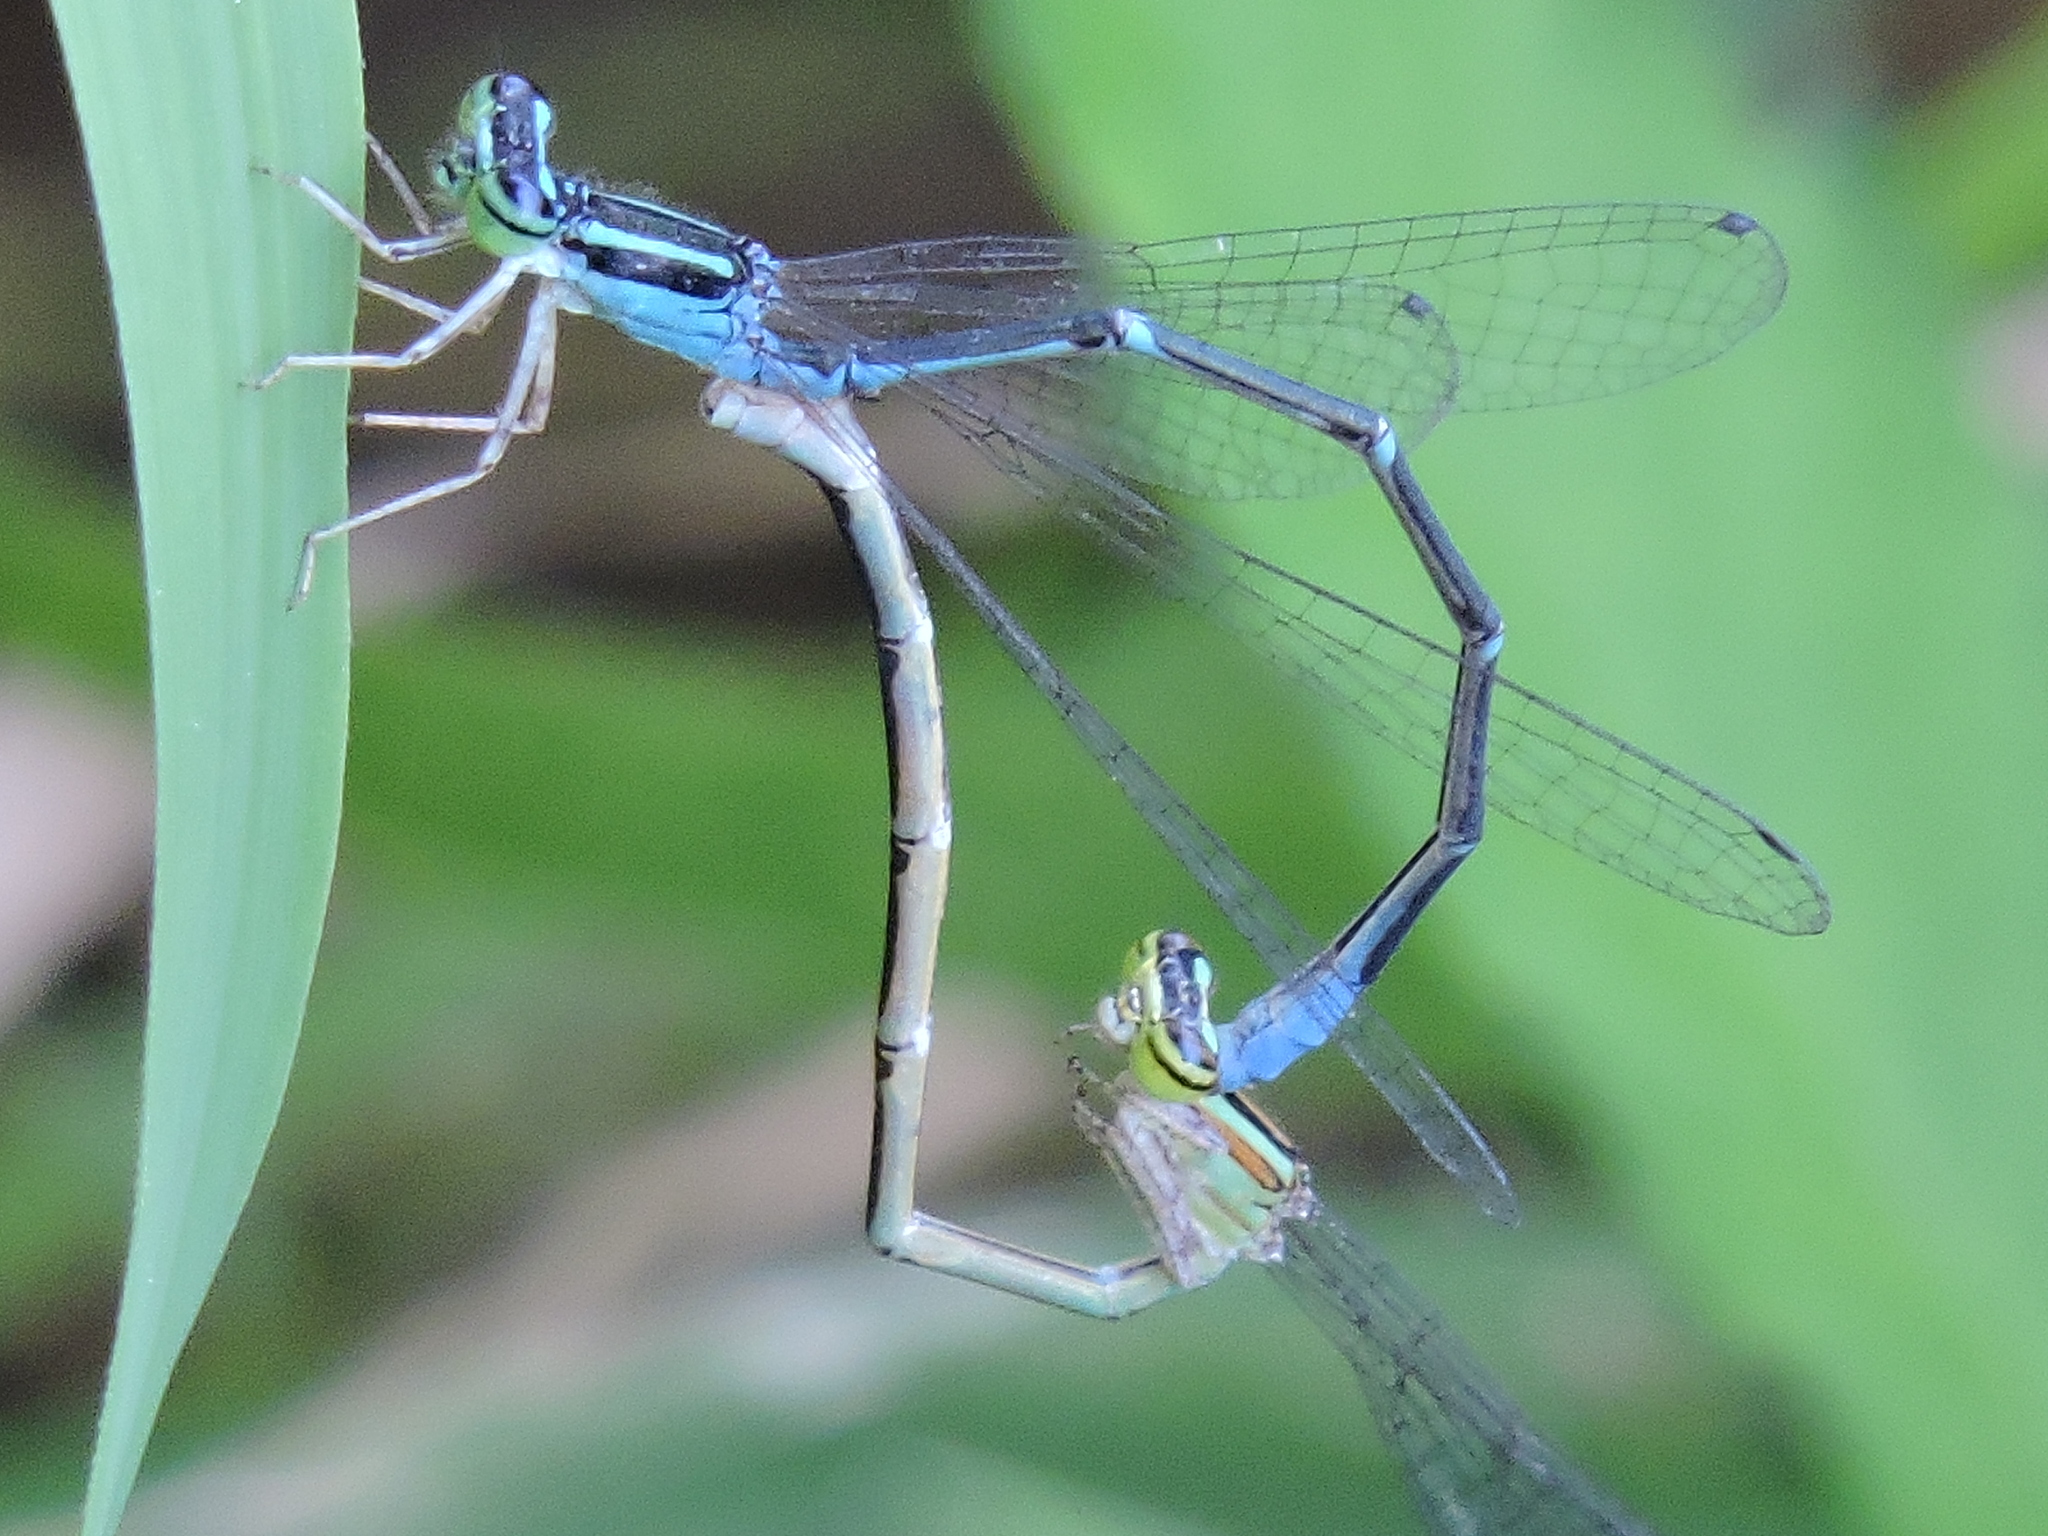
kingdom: Animalia
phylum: Arthropoda
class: Insecta
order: Odonata
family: Coenagrionidae
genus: Enallagma
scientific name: Enallagma exsulans
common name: Stream bluet
